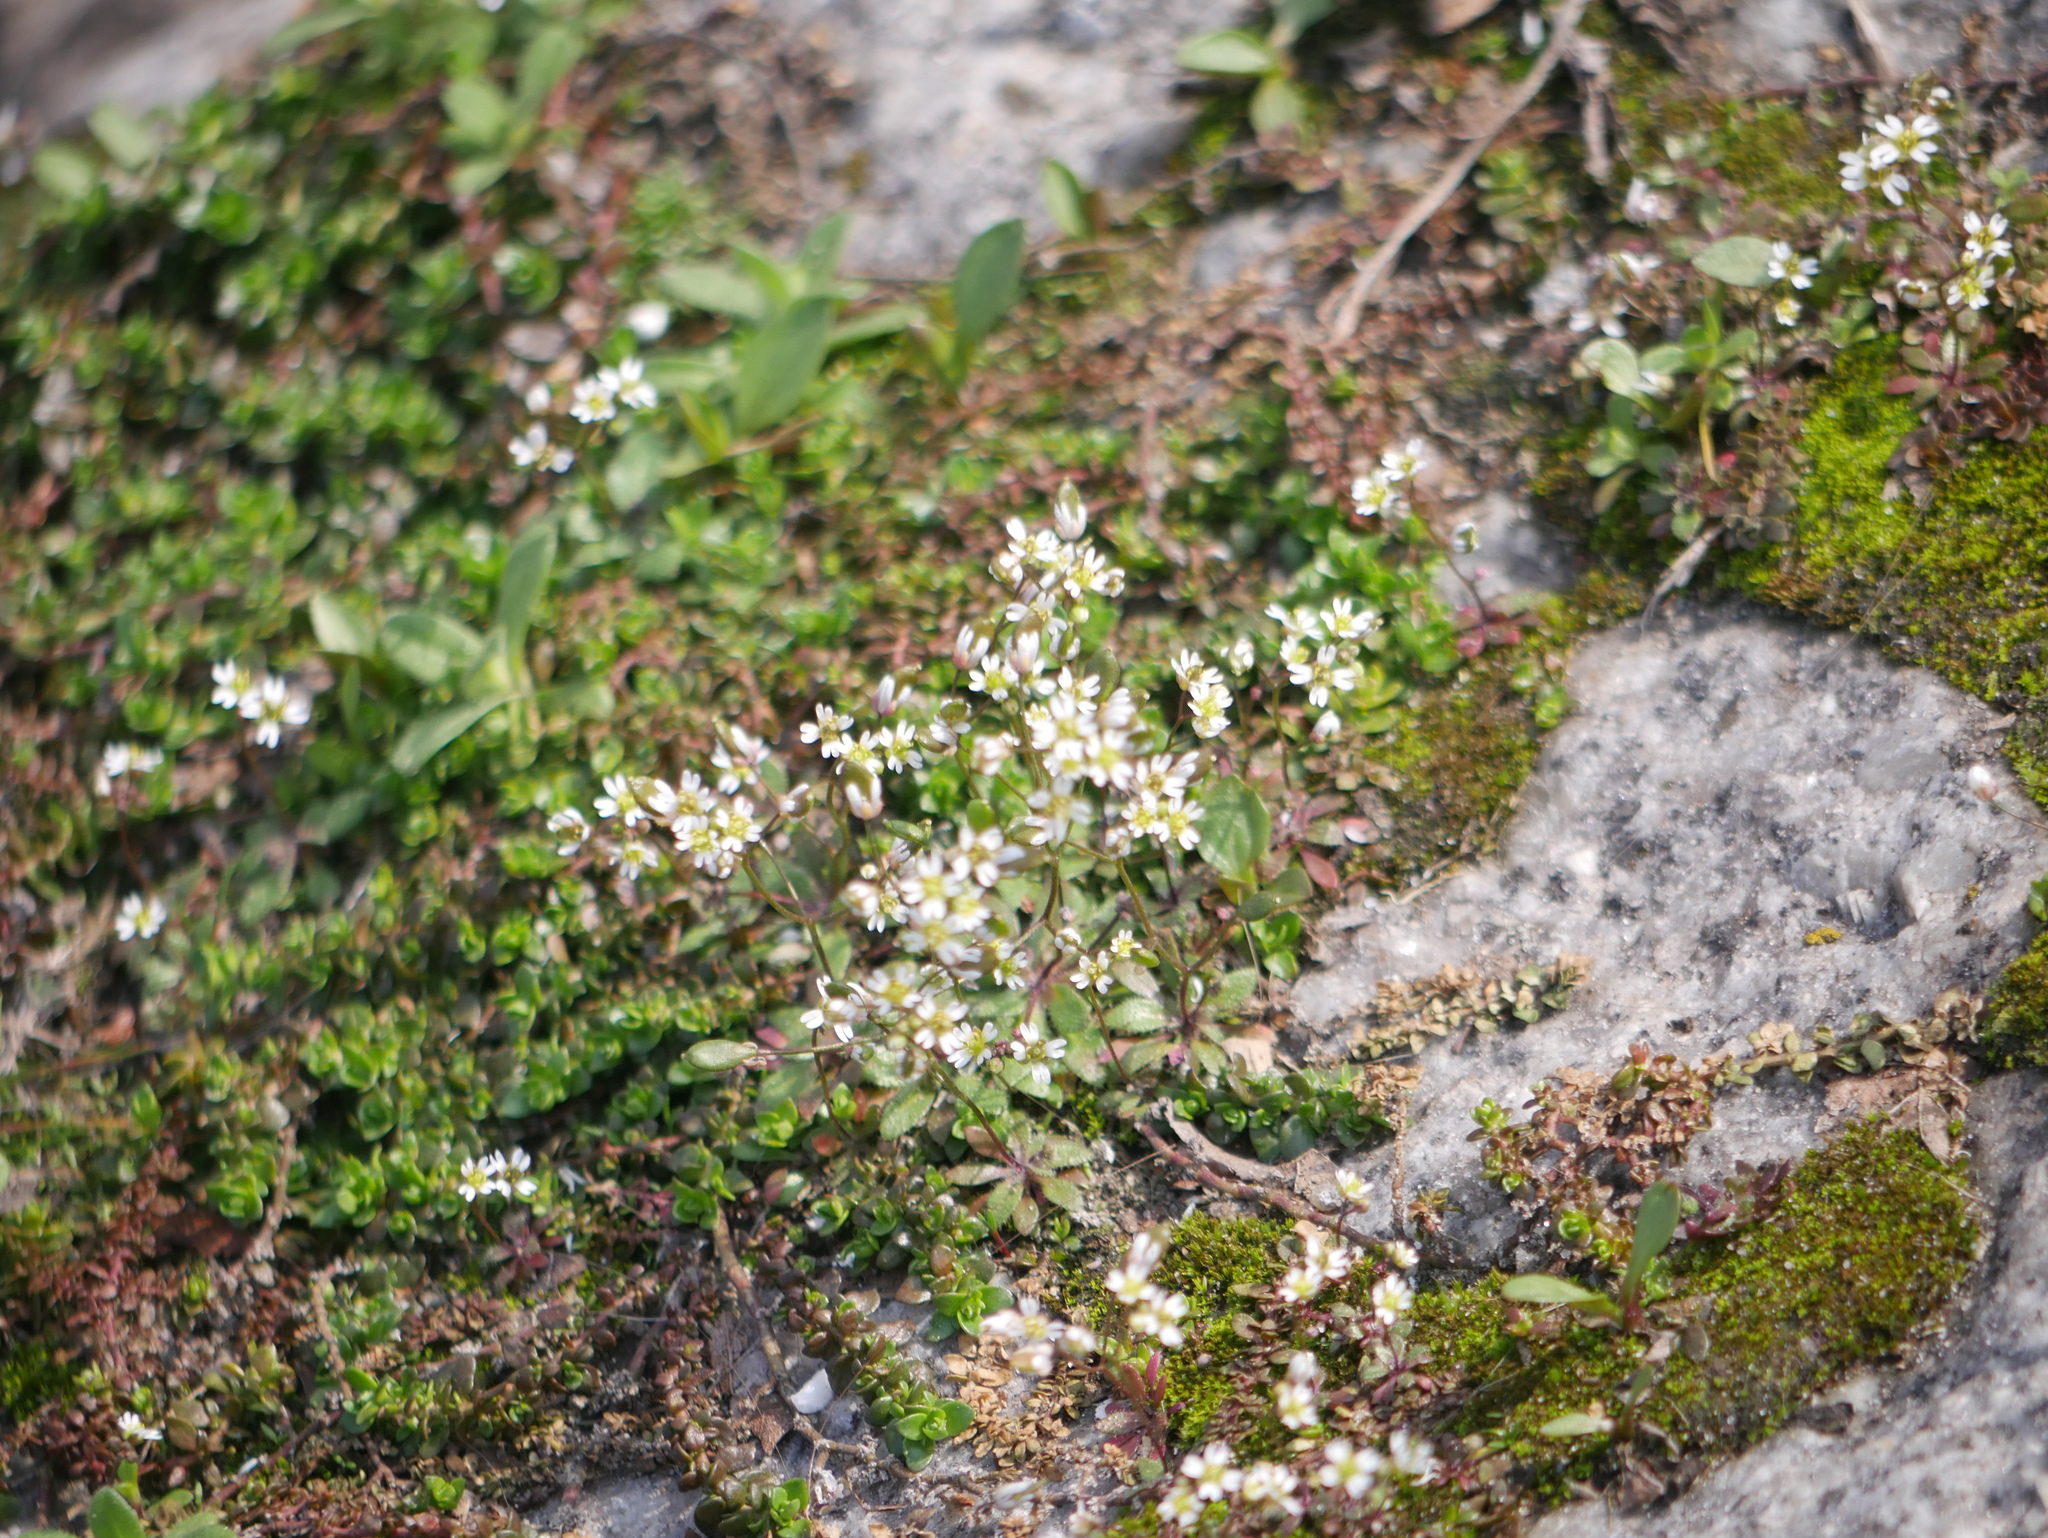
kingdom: Plantae
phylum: Tracheophyta
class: Magnoliopsida
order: Brassicales
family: Brassicaceae
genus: Draba
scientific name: Draba verna
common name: Spring draba
